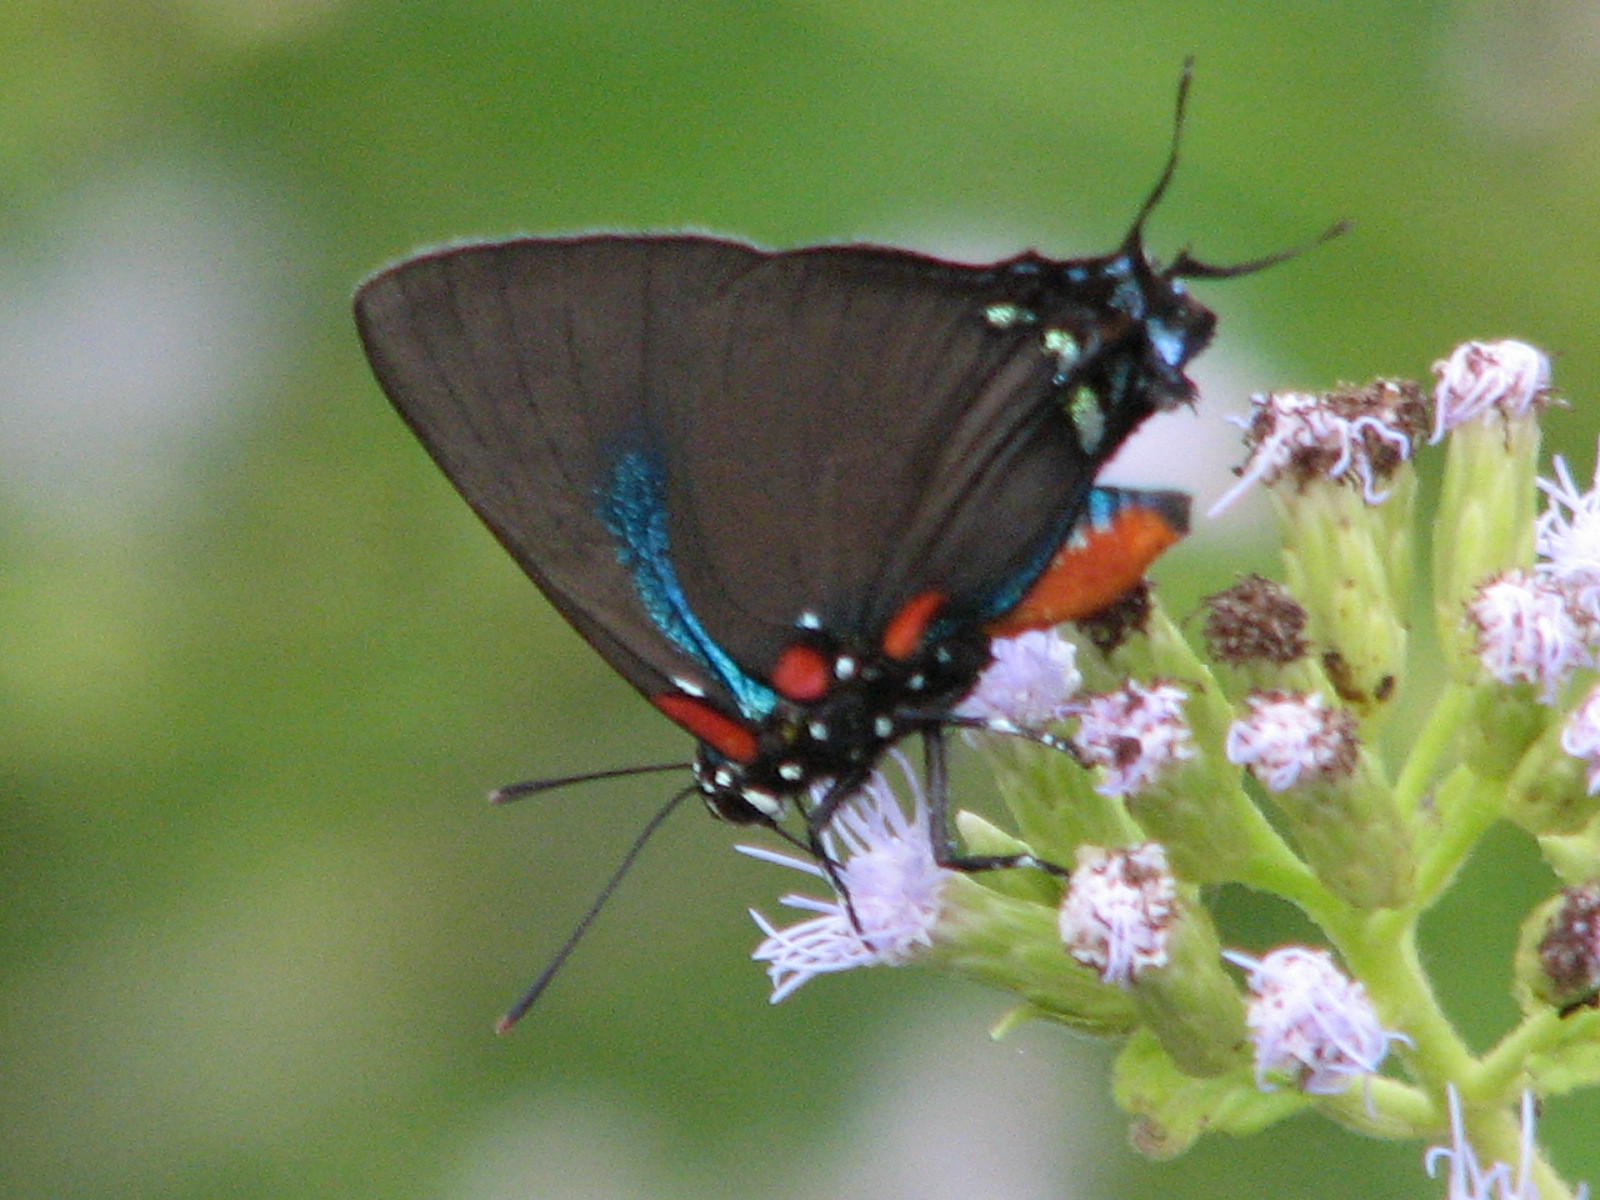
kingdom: Animalia
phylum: Arthropoda
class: Insecta
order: Lepidoptera
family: Lycaenidae
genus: Atlides
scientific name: Atlides halesus
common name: Great purple hairstreak
